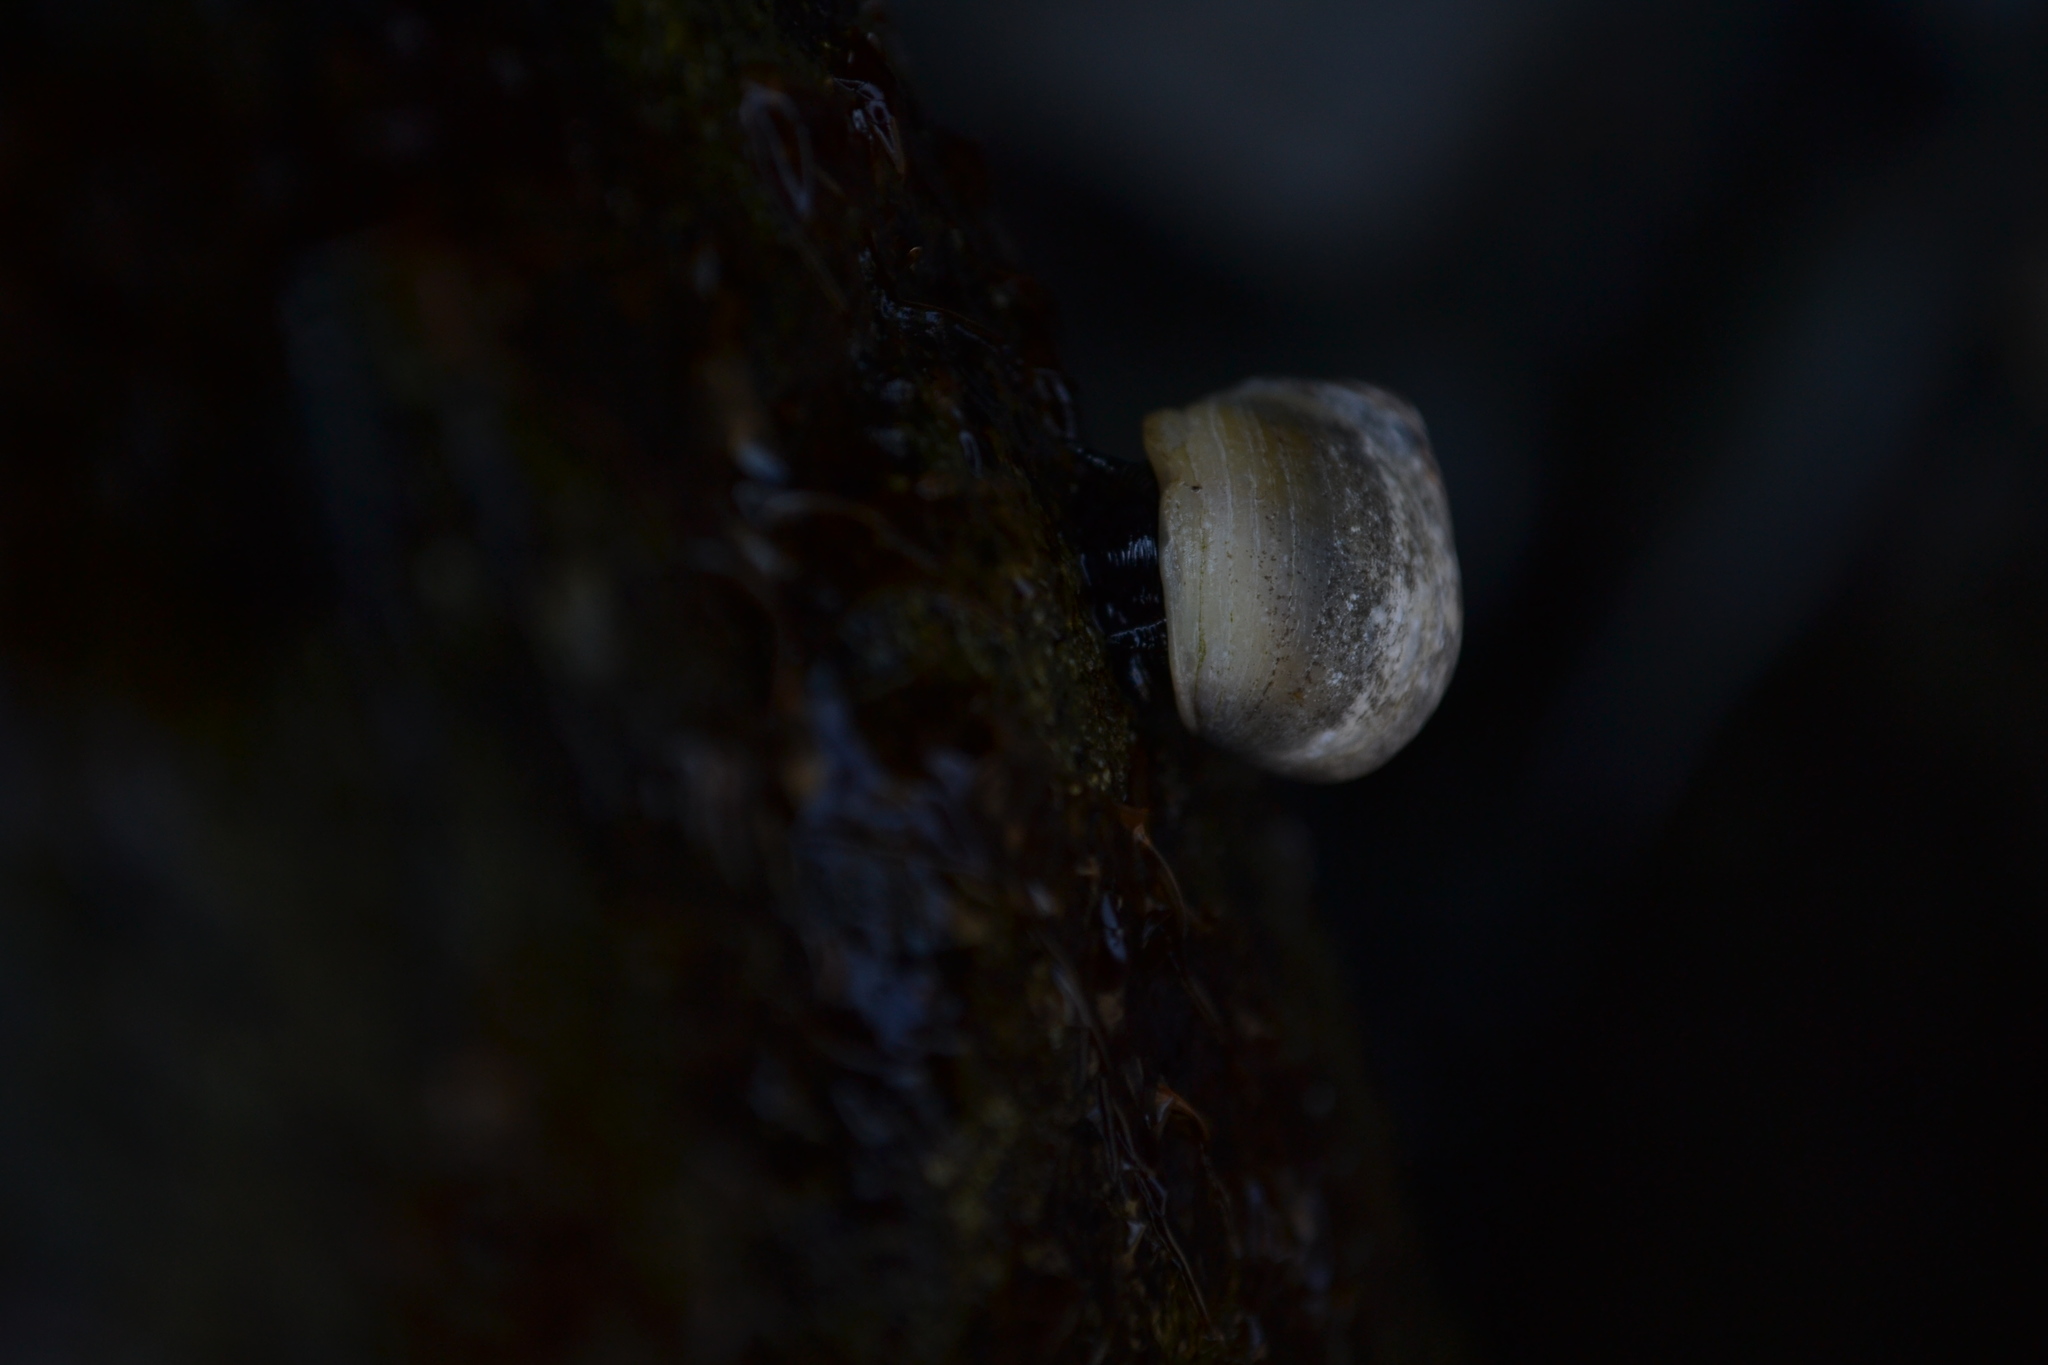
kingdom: Animalia
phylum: Mollusca
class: Gastropoda
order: Littorinimorpha
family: Littorinidae
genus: Littorina
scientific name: Littorina littorea
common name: Common periwinkle
